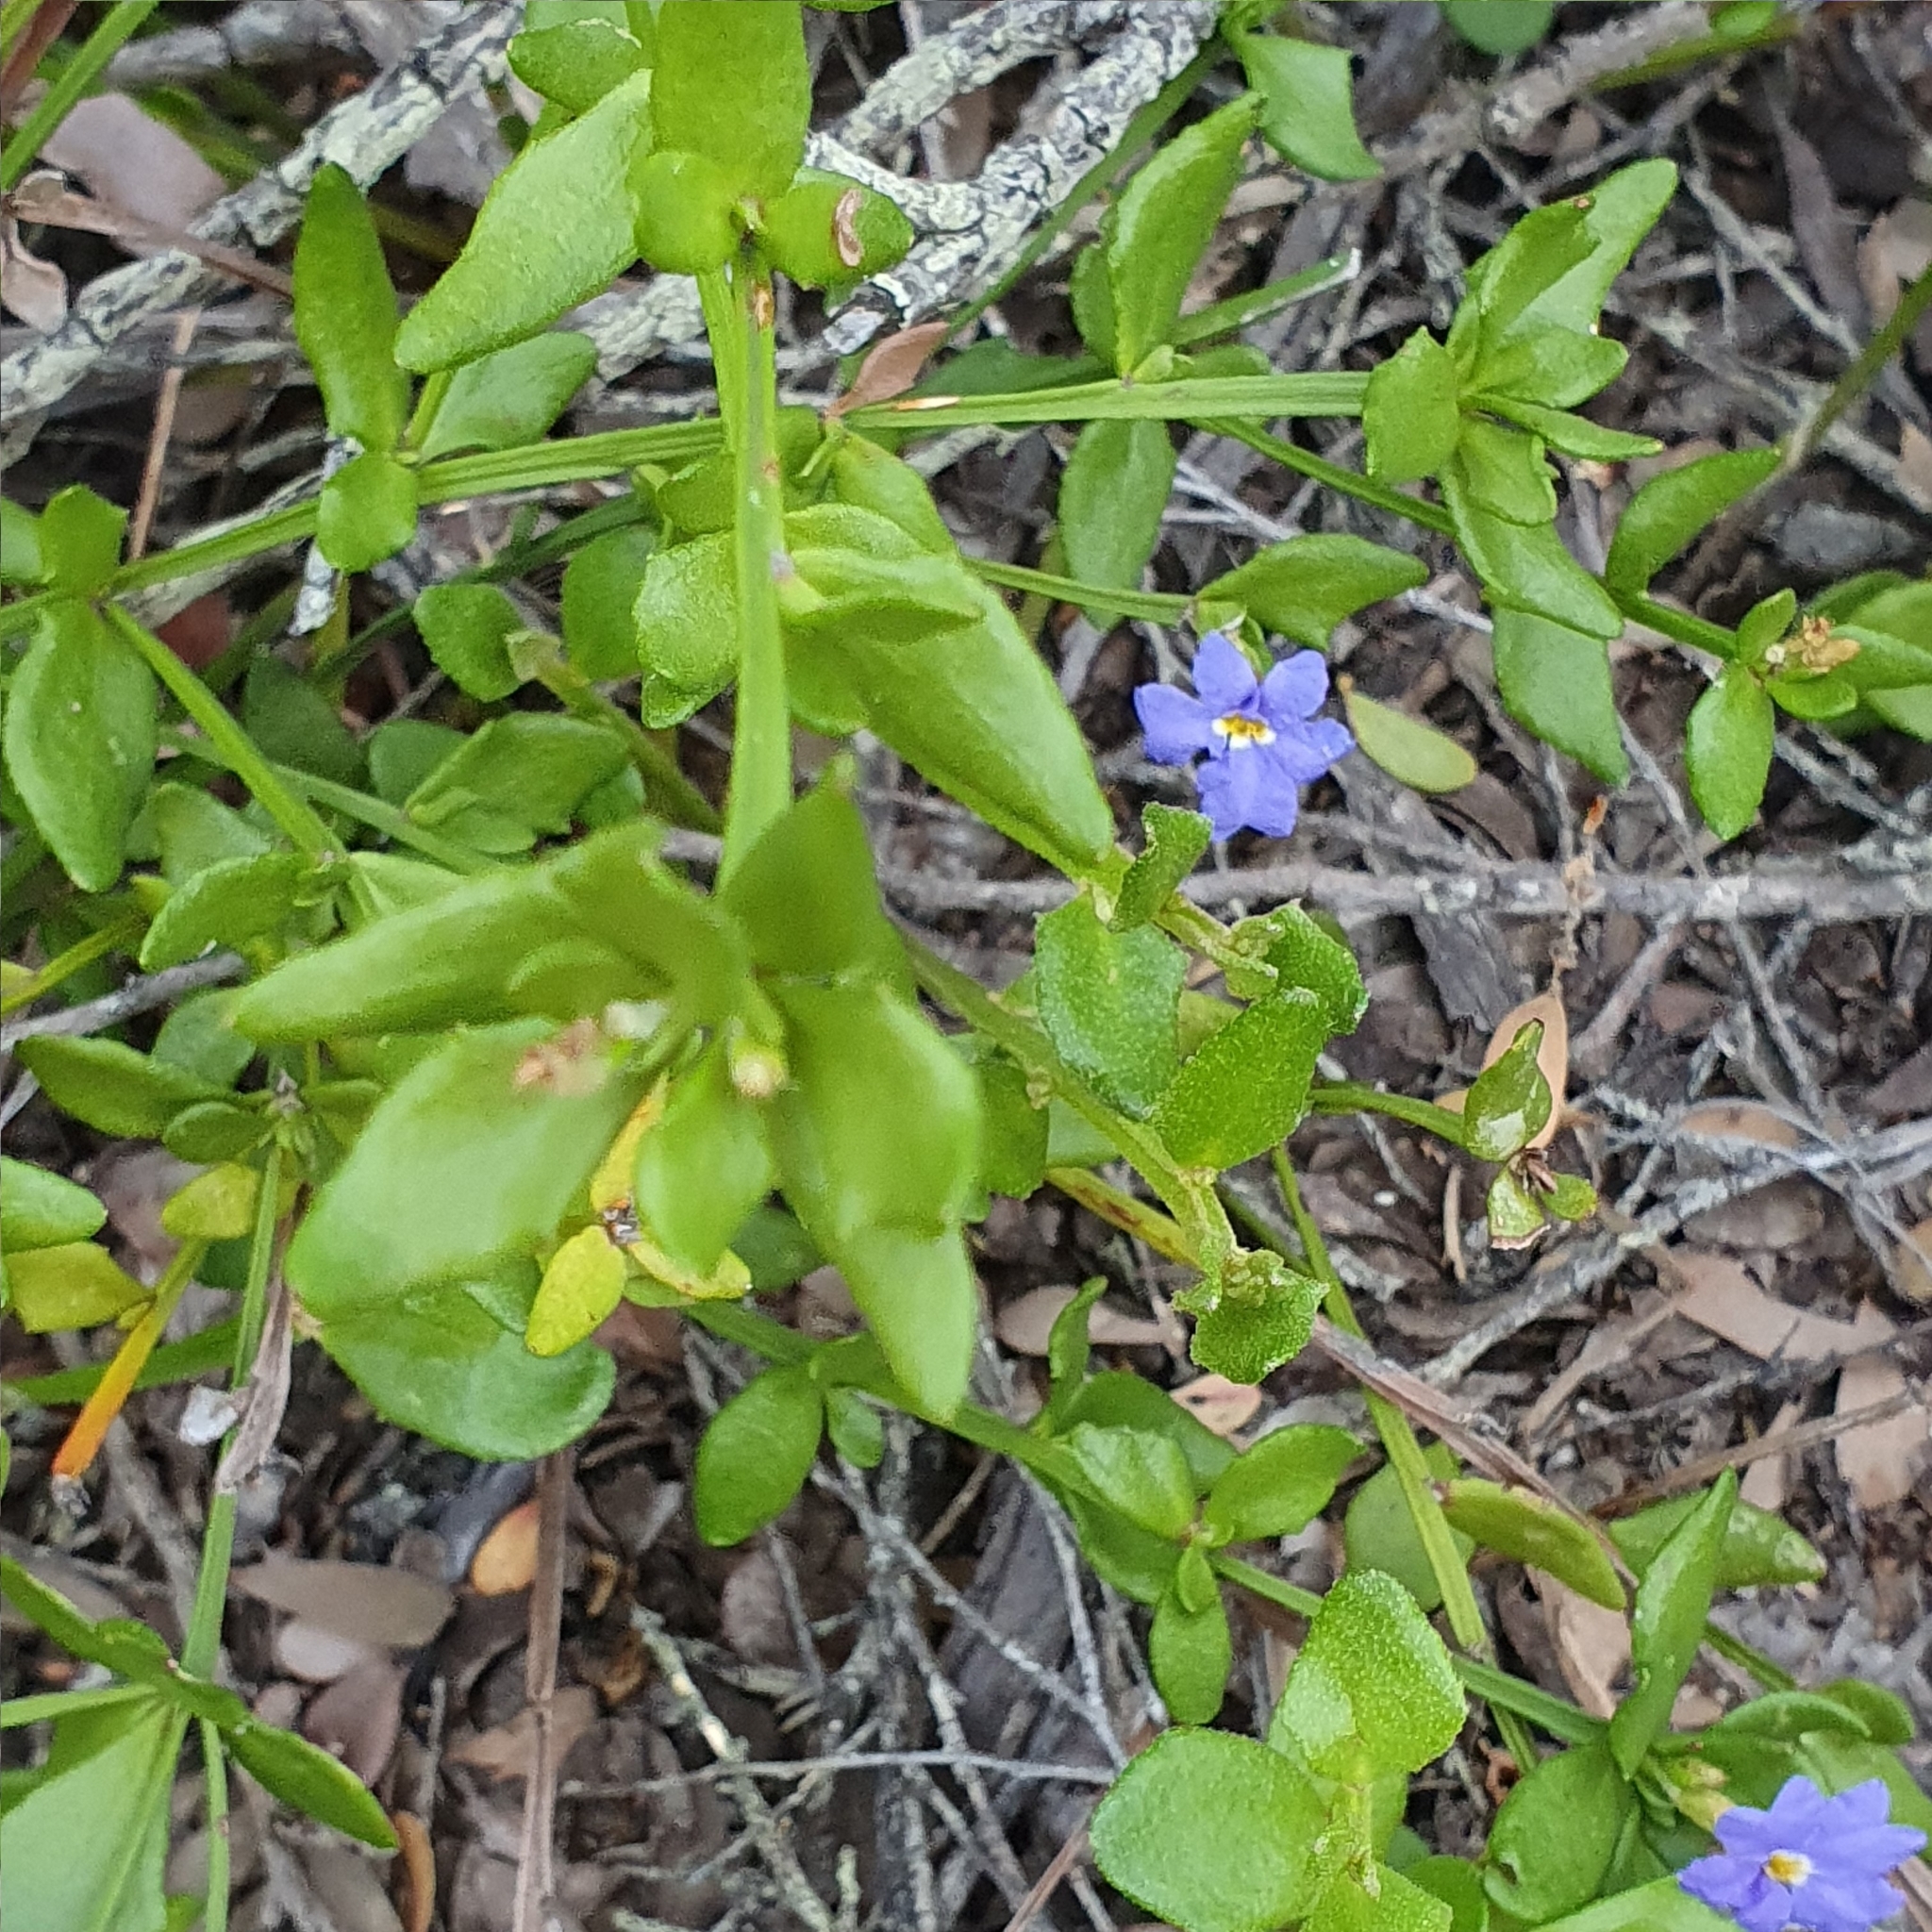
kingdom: Plantae
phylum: Tracheophyta
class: Magnoliopsida
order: Asterales
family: Goodeniaceae
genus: Dampiera
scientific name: Dampiera stricta
